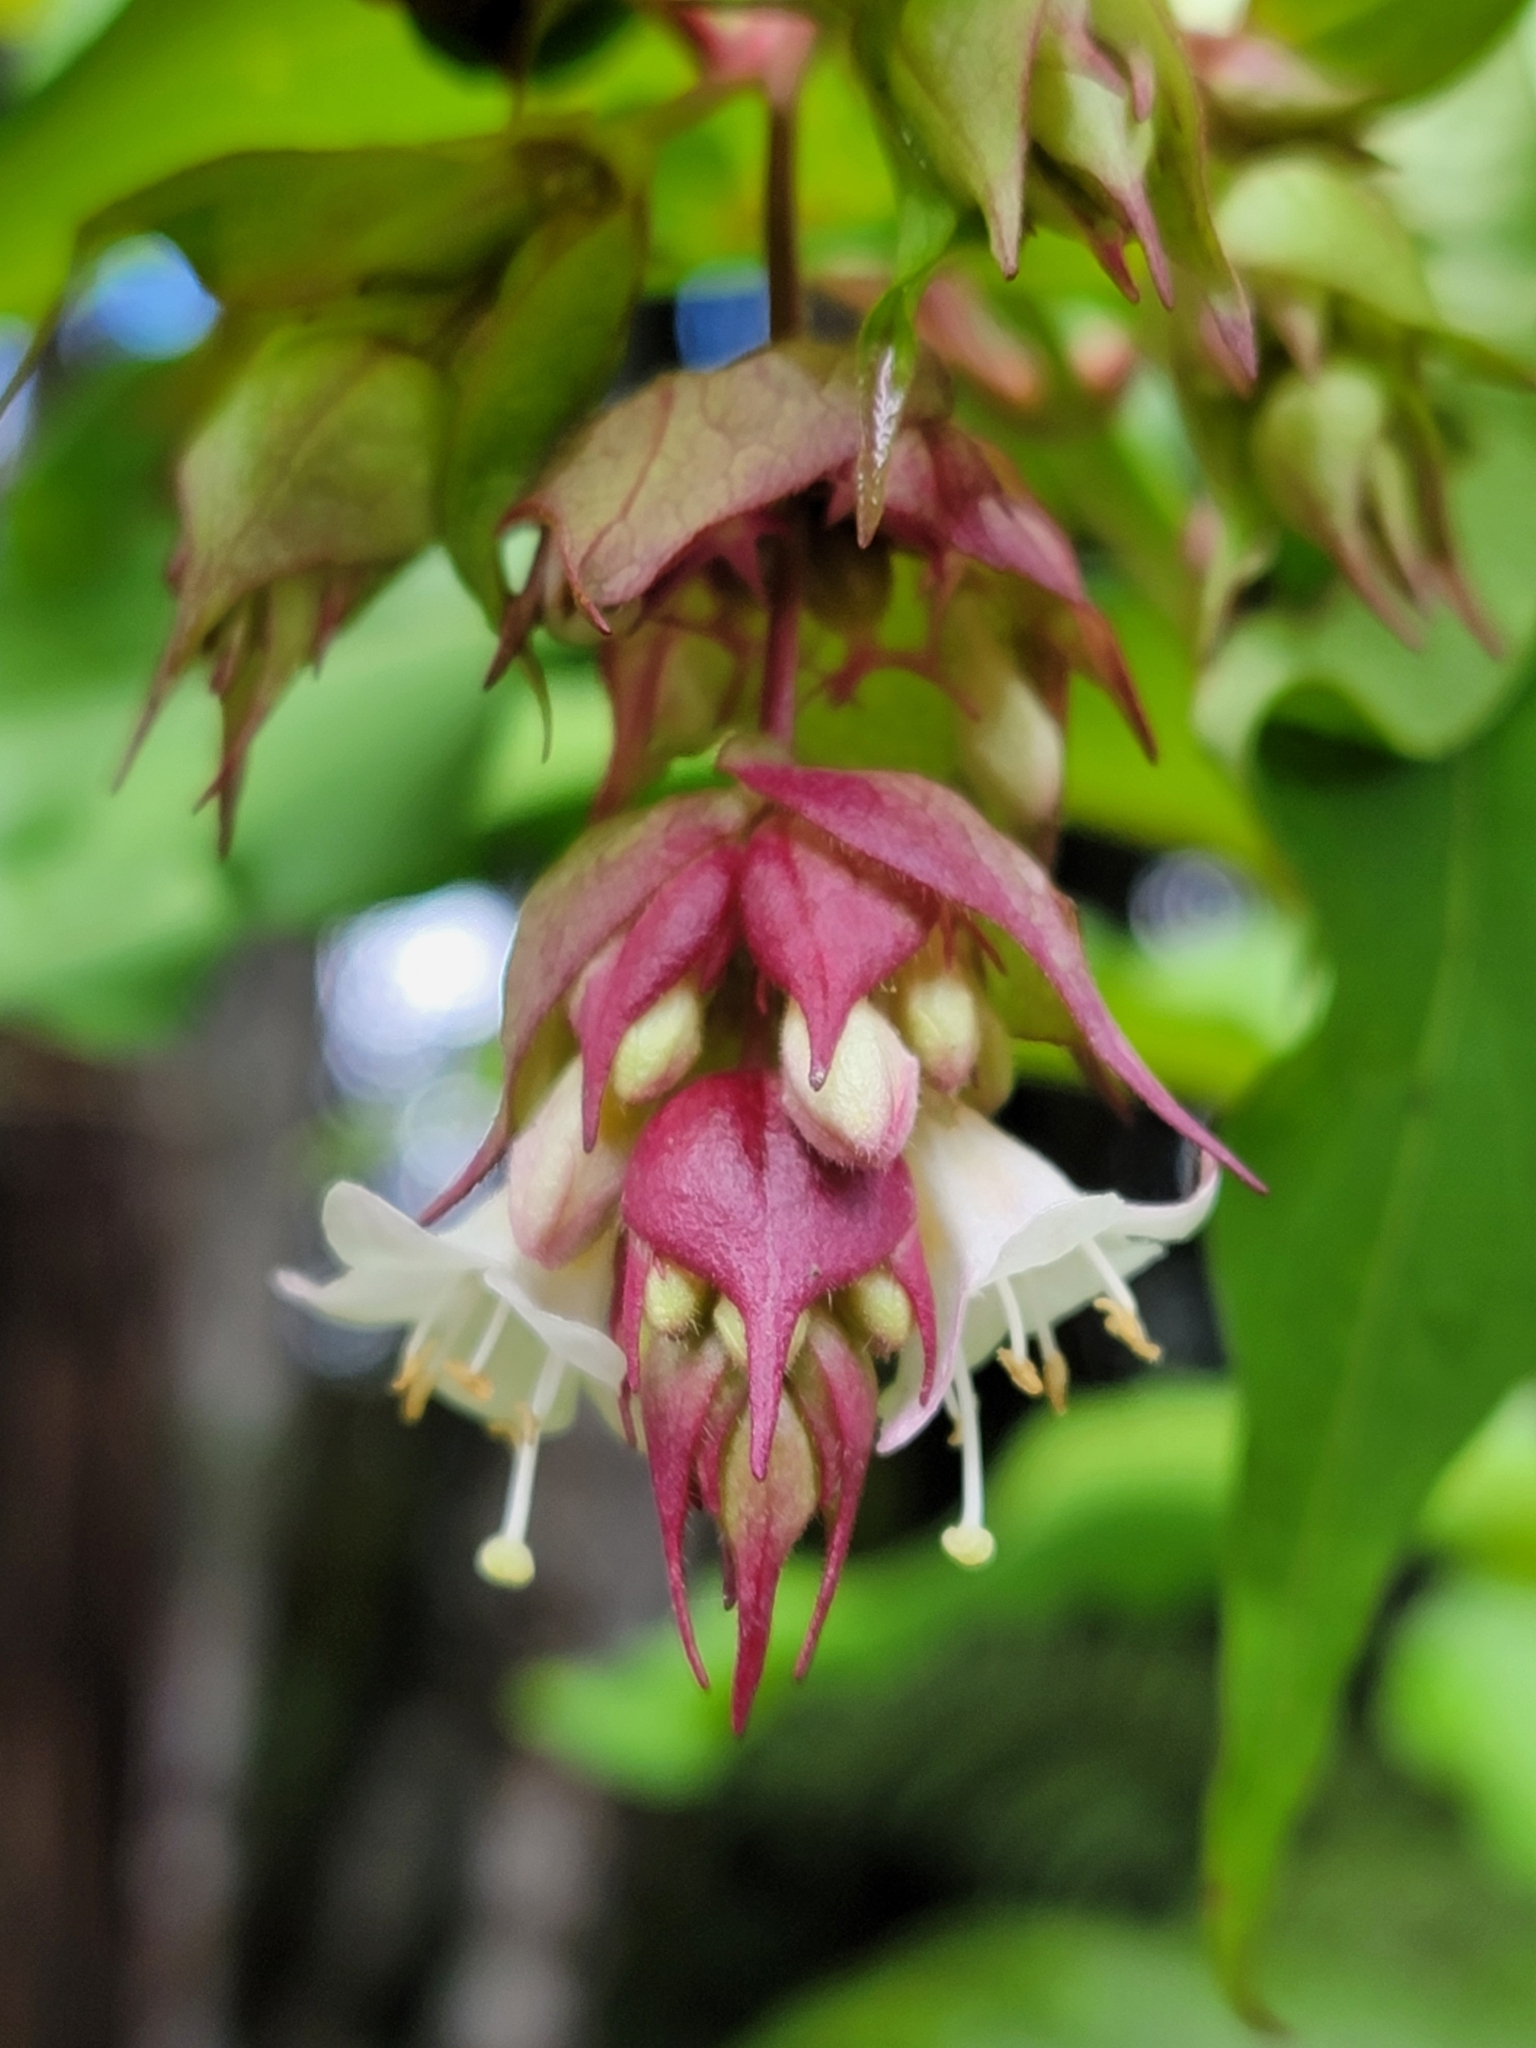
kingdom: Plantae
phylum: Tracheophyta
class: Magnoliopsida
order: Dipsacales
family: Caprifoliaceae
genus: Leycesteria
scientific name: Leycesteria formosa
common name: Himalayan honeysuckle
